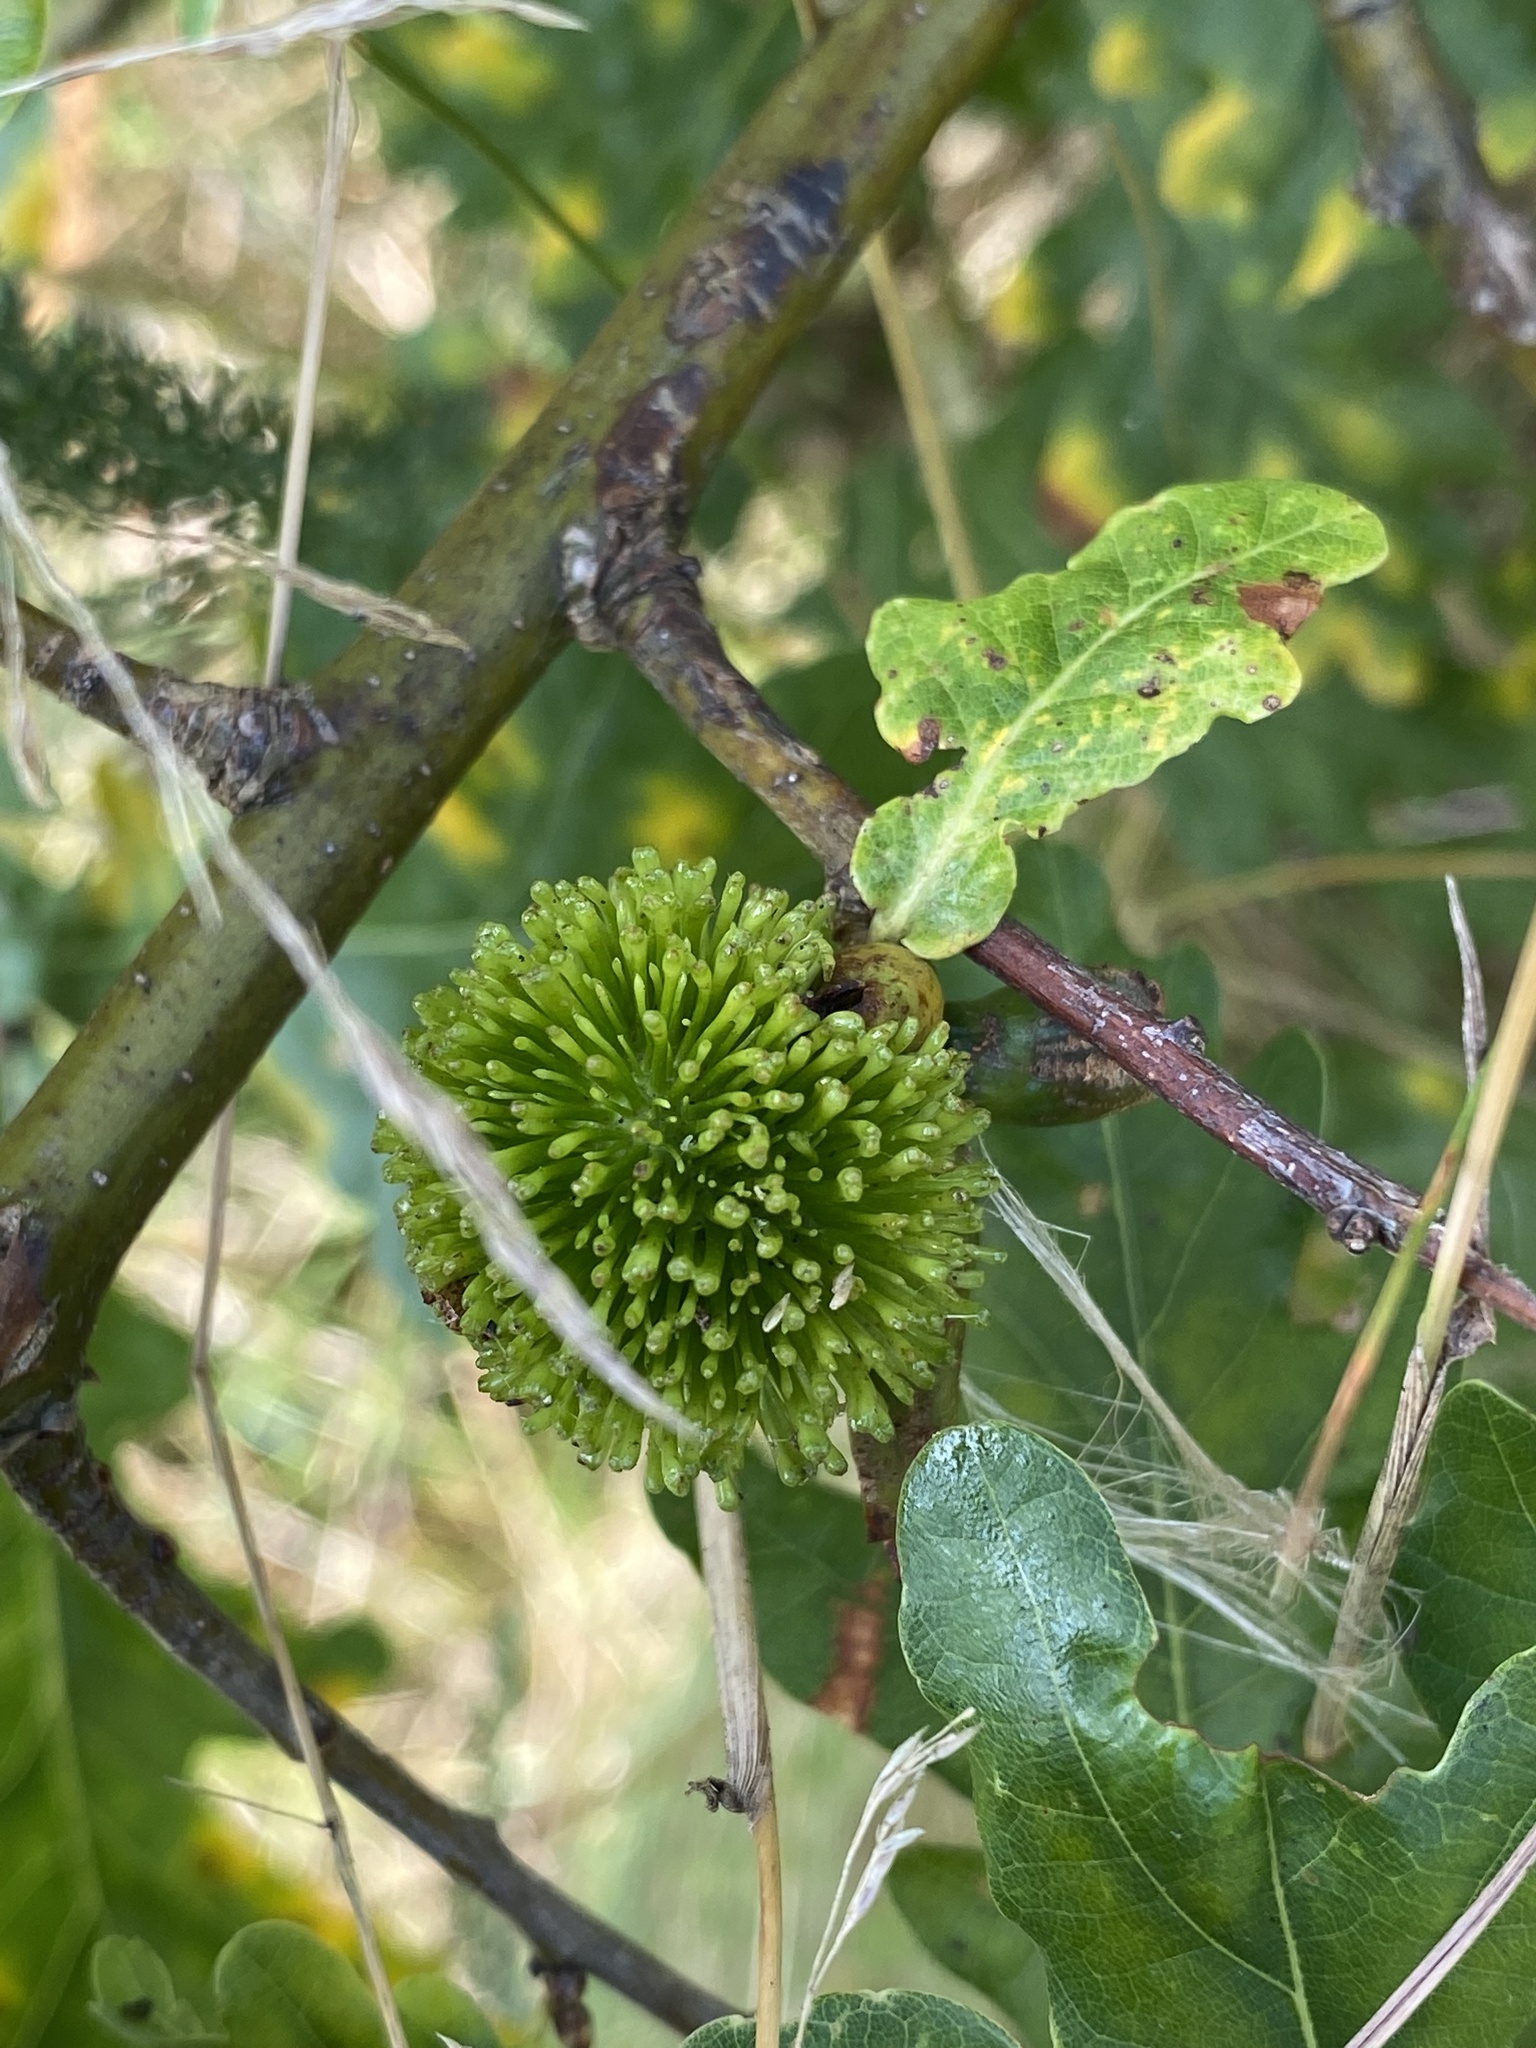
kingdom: Animalia
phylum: Arthropoda
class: Insecta
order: Hymenoptera
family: Cynipidae
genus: Andricus
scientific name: Andricus lucidus
